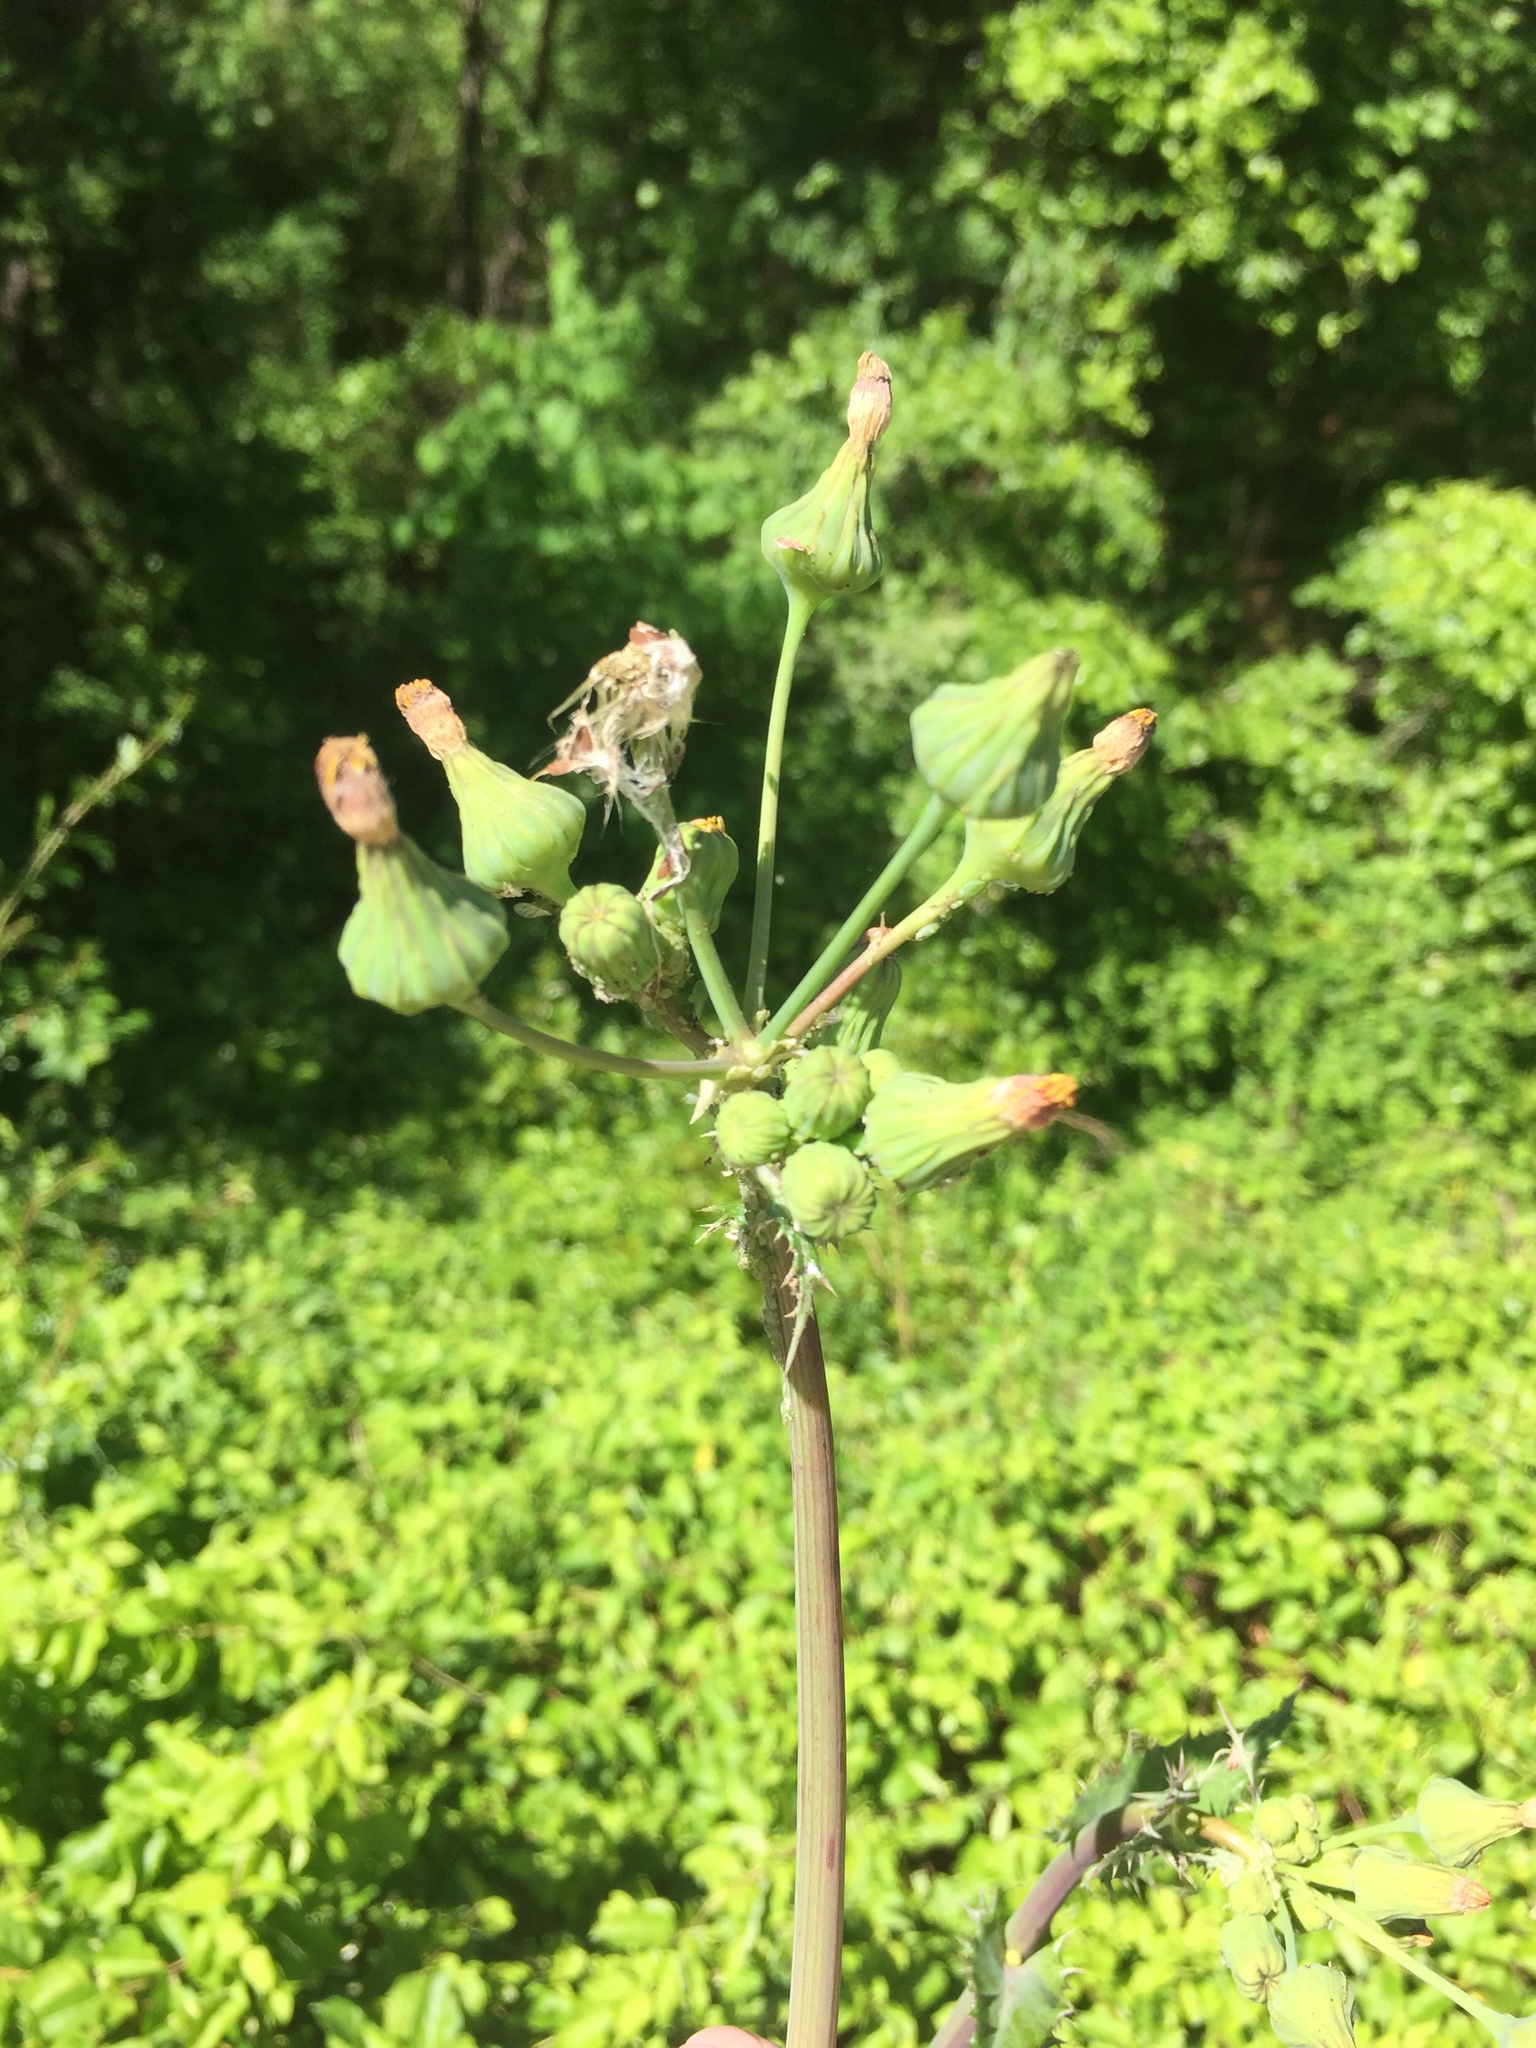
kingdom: Plantae
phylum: Tracheophyta
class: Magnoliopsida
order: Asterales
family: Asteraceae
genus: Sonchus
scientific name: Sonchus asper
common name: Prickly sow-thistle
